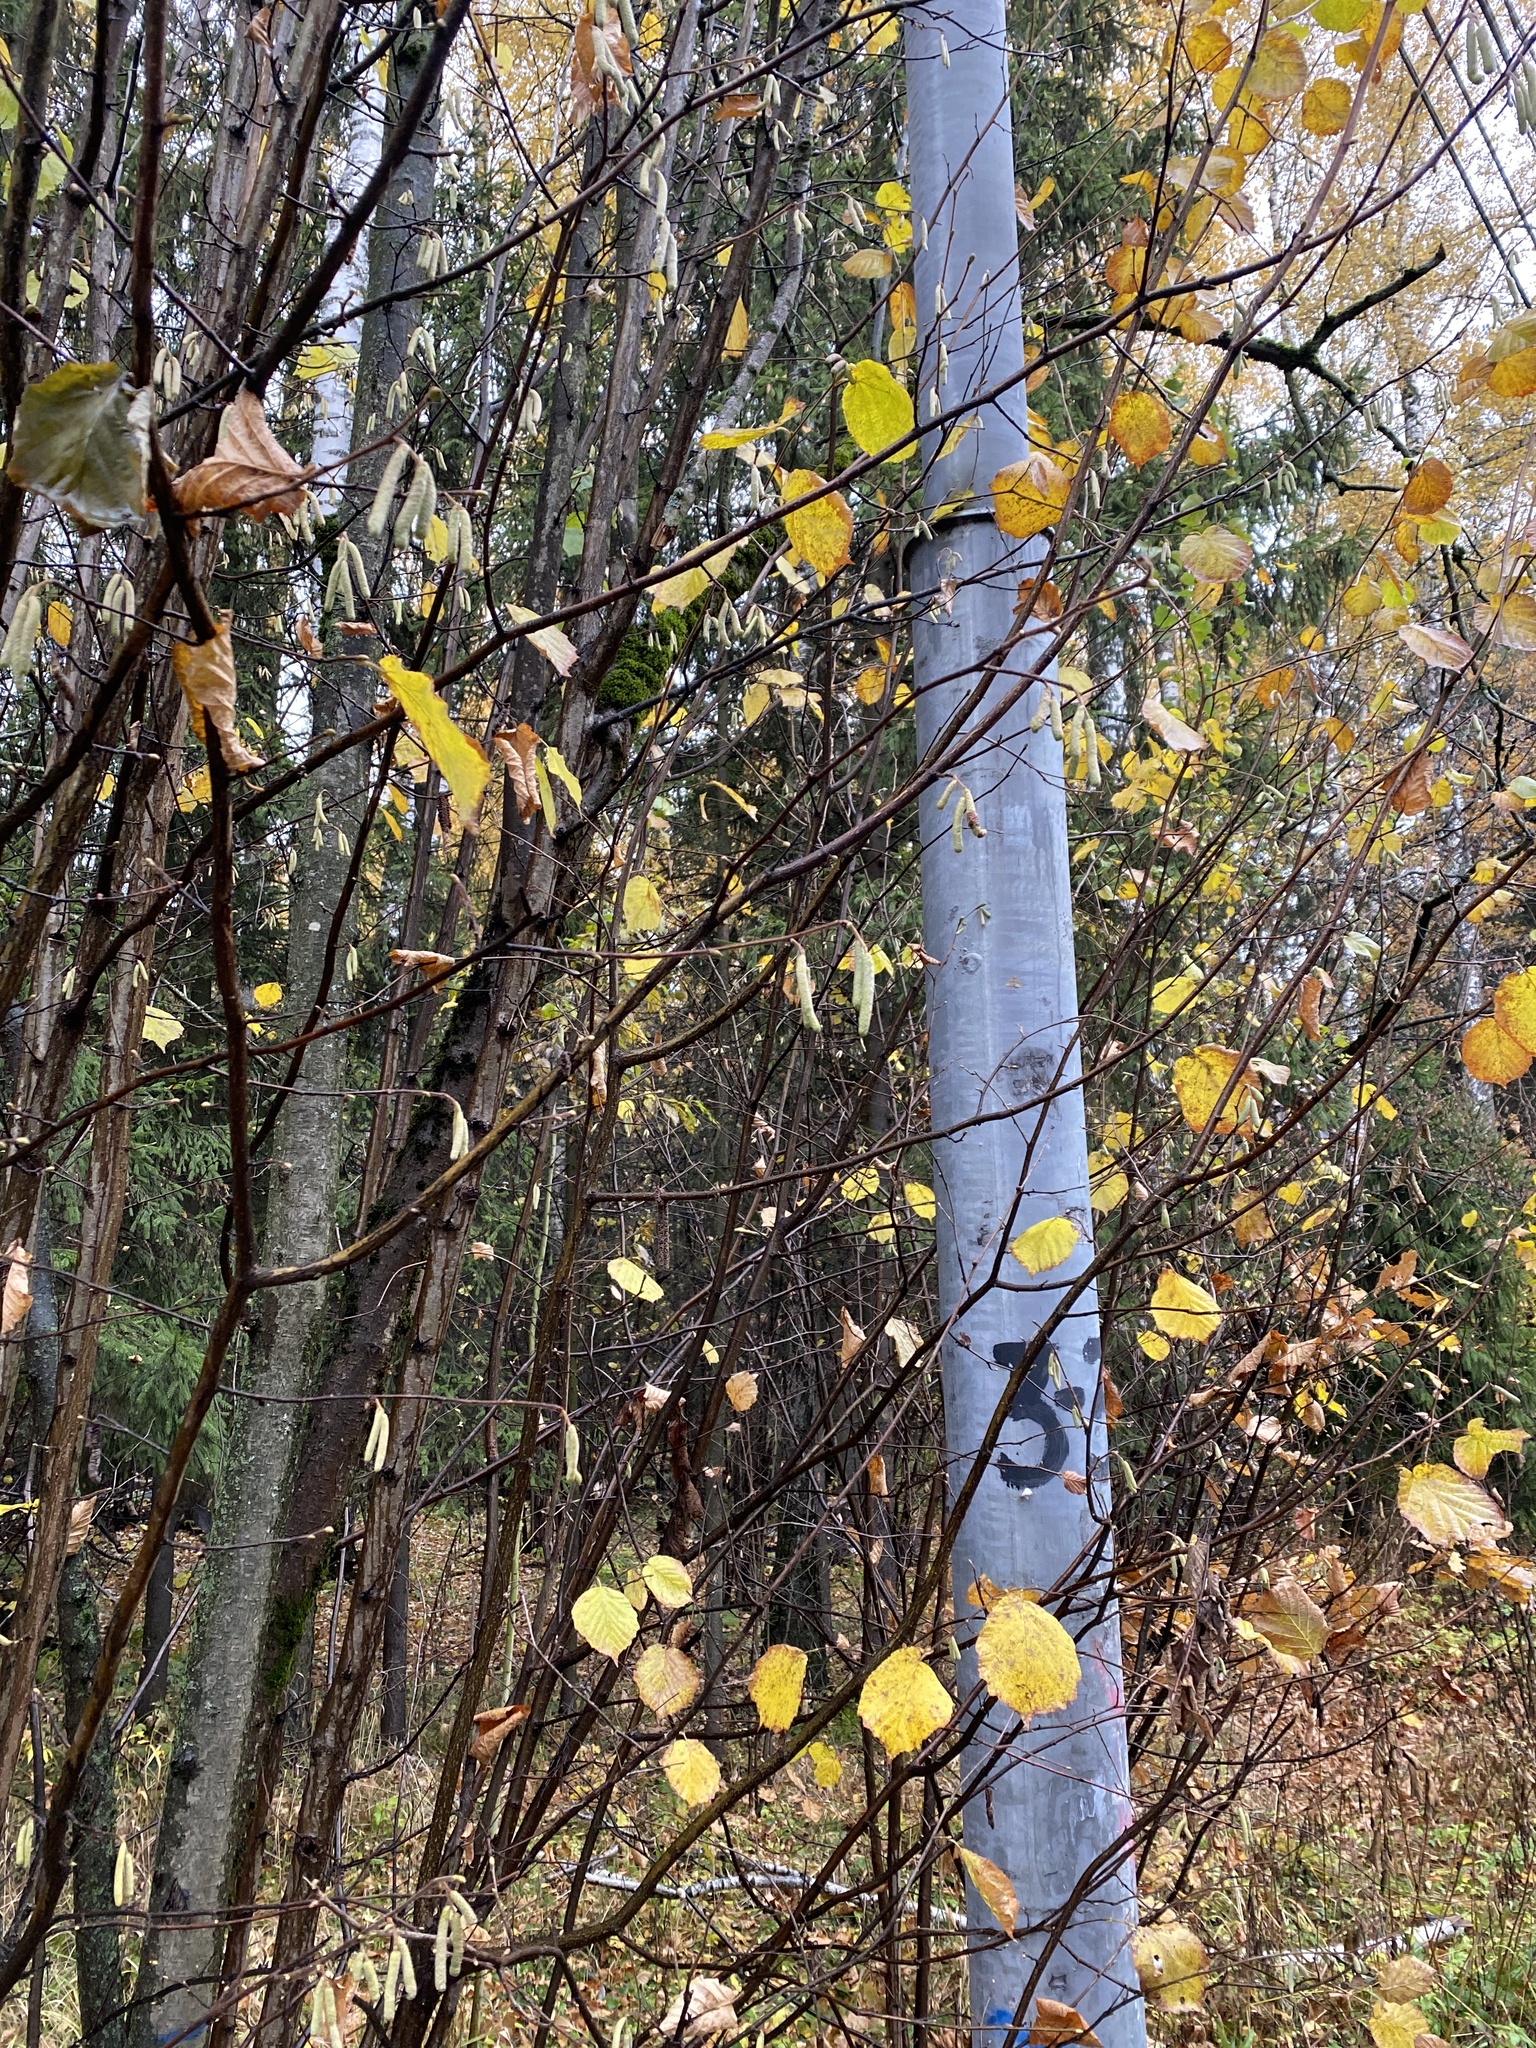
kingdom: Plantae
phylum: Tracheophyta
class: Magnoliopsida
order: Fagales
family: Betulaceae
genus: Corylus
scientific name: Corylus avellana
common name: European hazel
